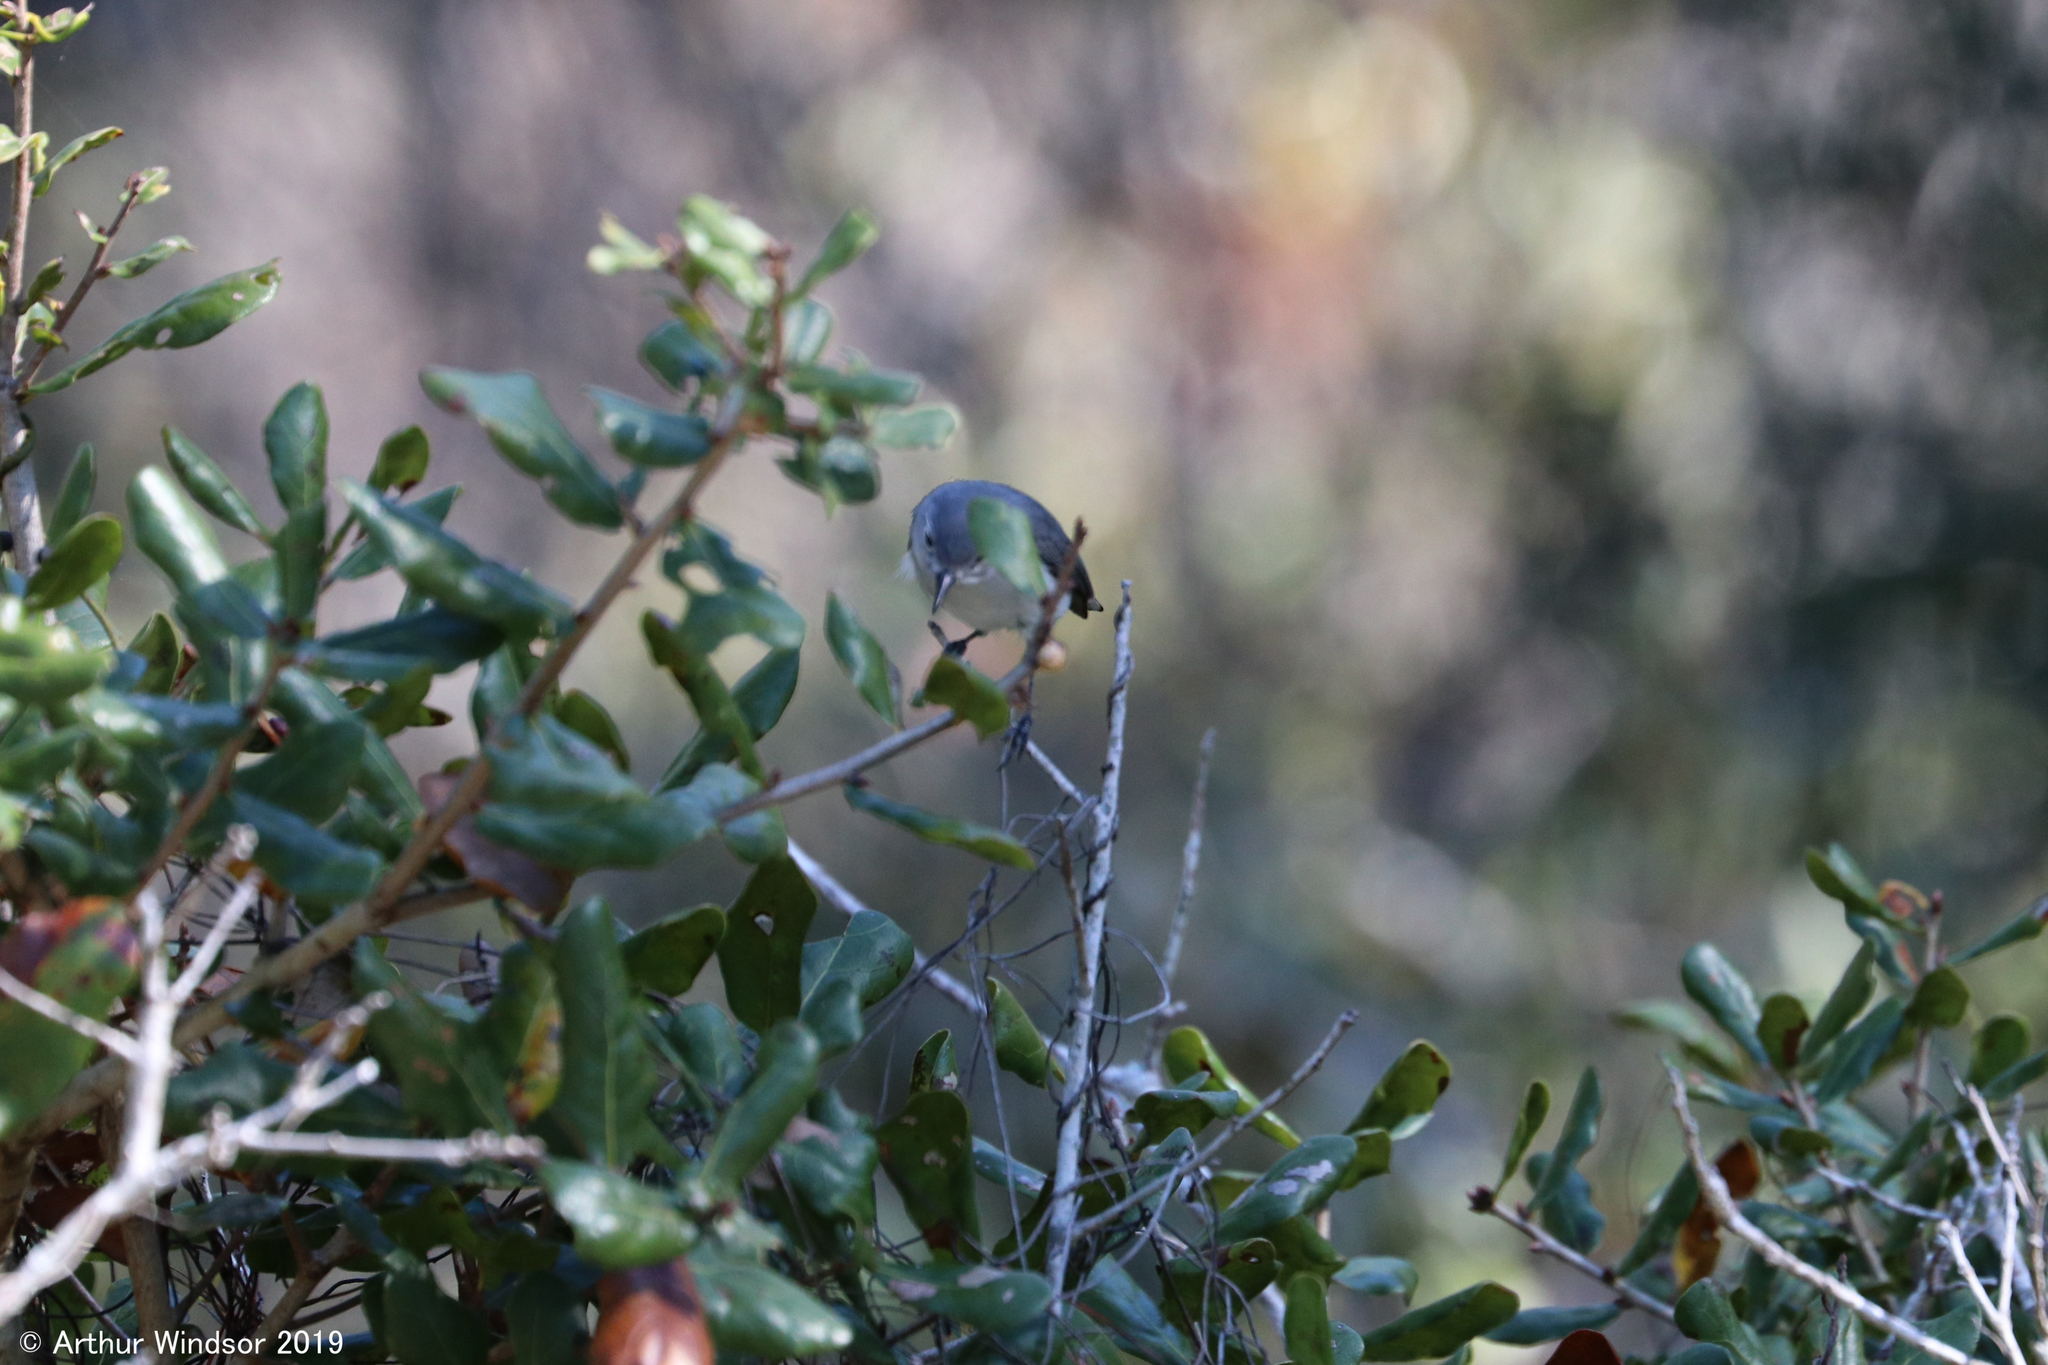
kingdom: Animalia
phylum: Chordata
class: Aves
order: Passeriformes
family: Polioptilidae
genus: Polioptila
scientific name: Polioptila caerulea
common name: Blue-gray gnatcatcher
